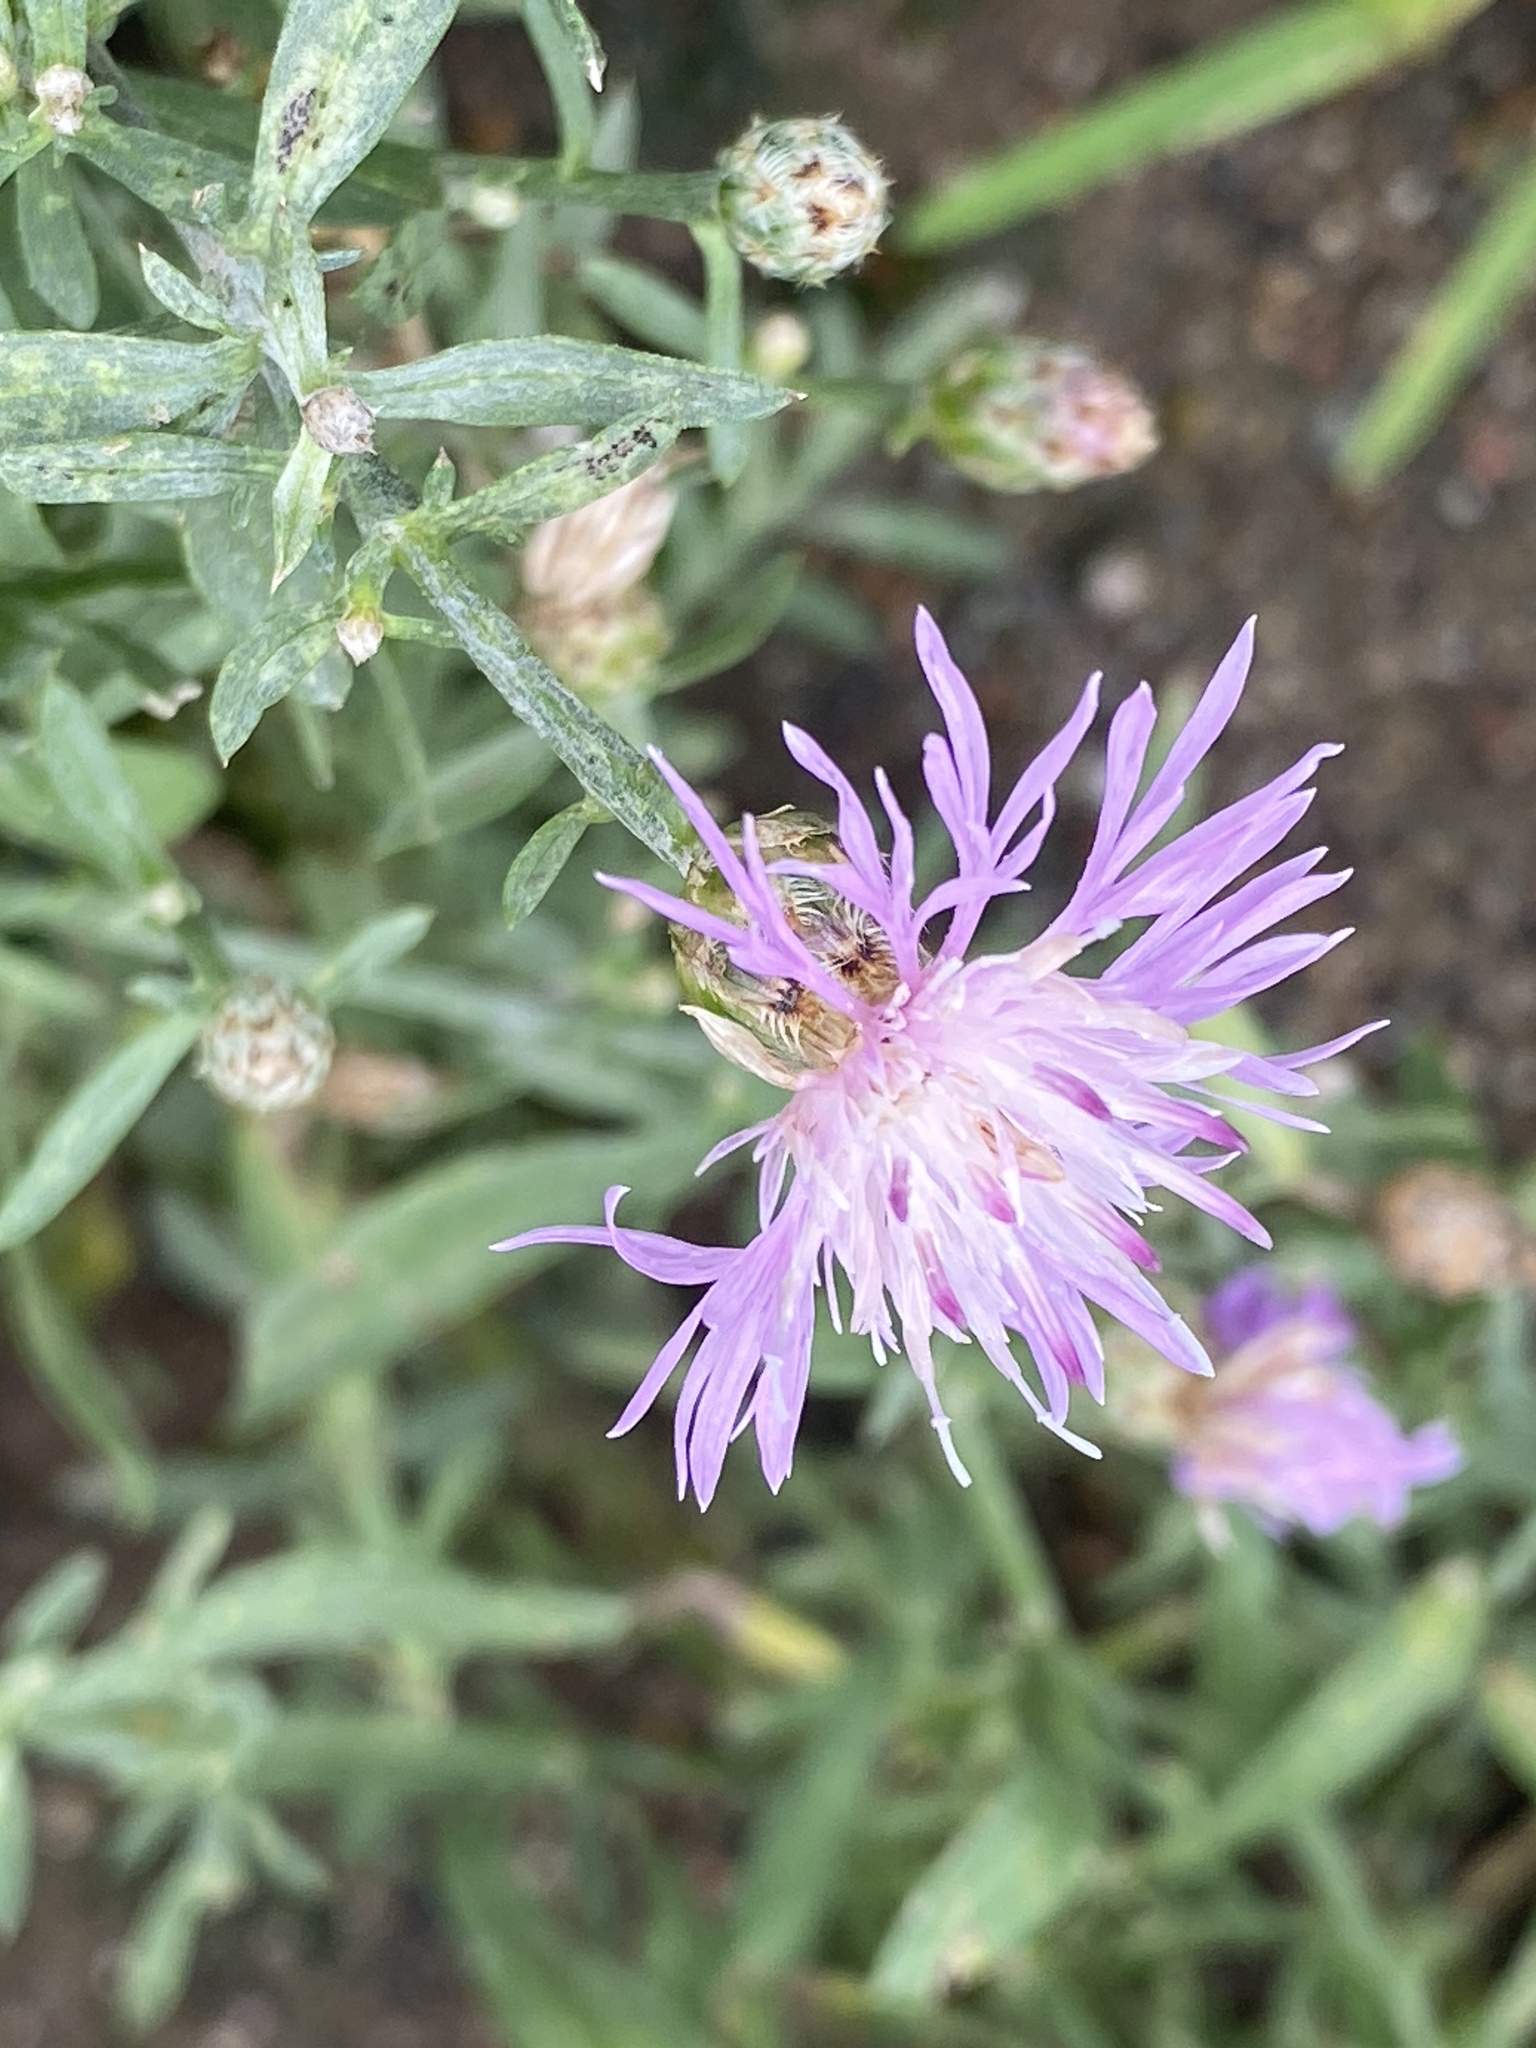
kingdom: Plantae
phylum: Tracheophyta
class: Magnoliopsida
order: Asterales
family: Asteraceae
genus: Centaurea
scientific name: Centaurea stoebe
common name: Spotted knapweed
